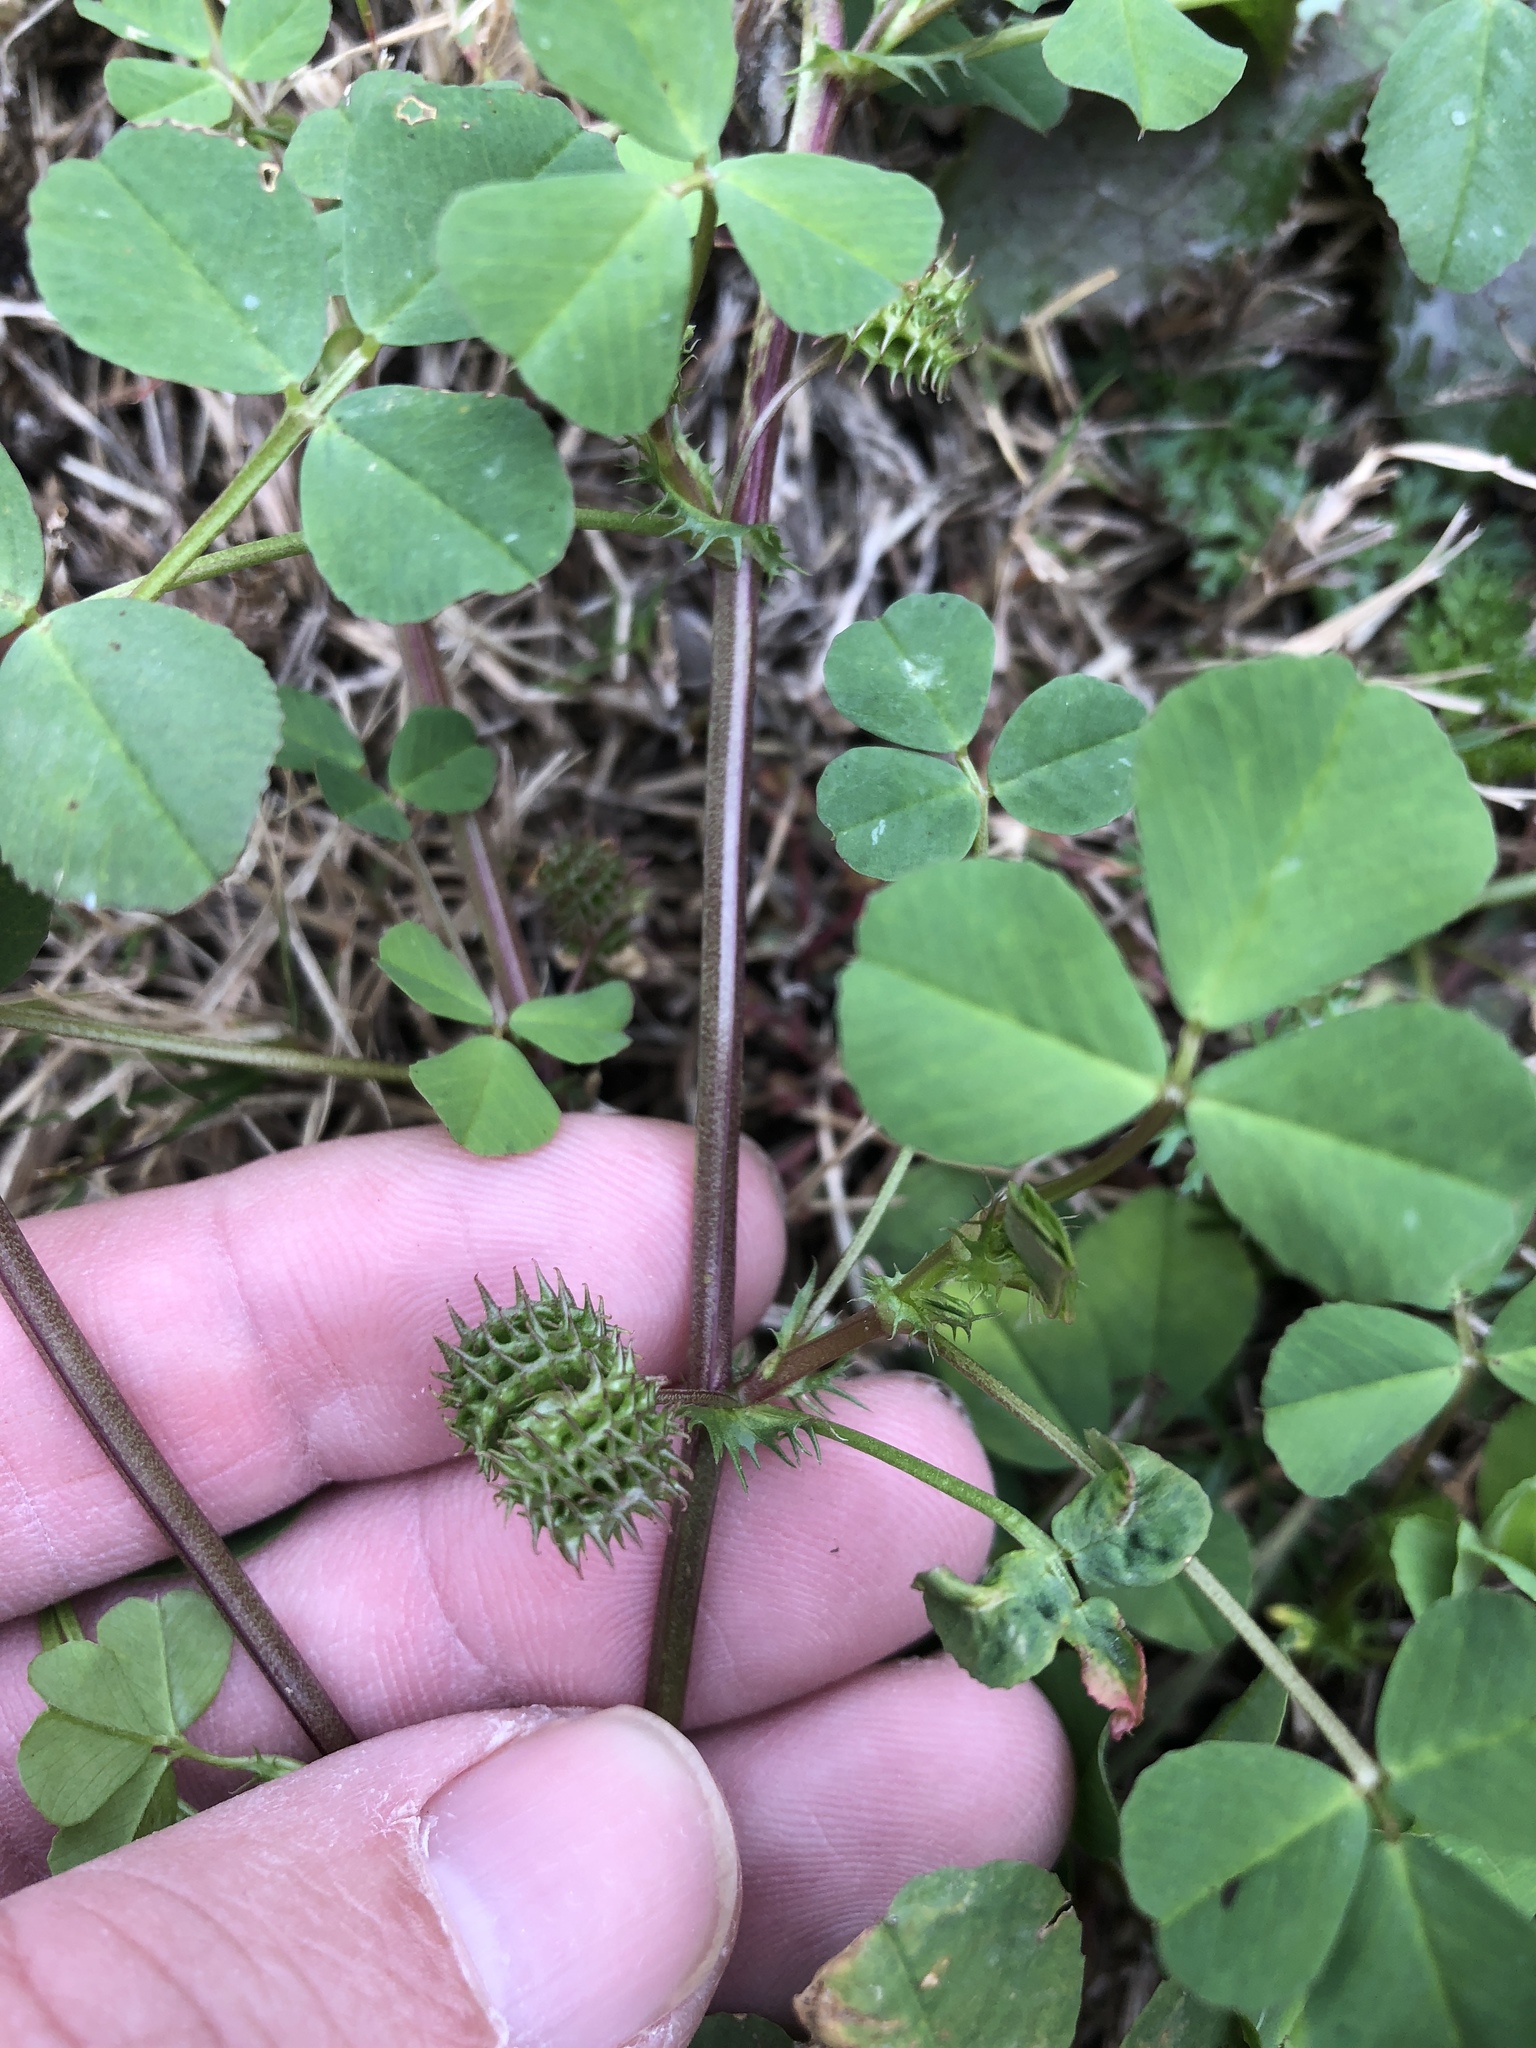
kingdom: Plantae
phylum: Tracheophyta
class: Magnoliopsida
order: Fabales
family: Fabaceae
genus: Medicago
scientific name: Medicago polymorpha
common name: Burclover
